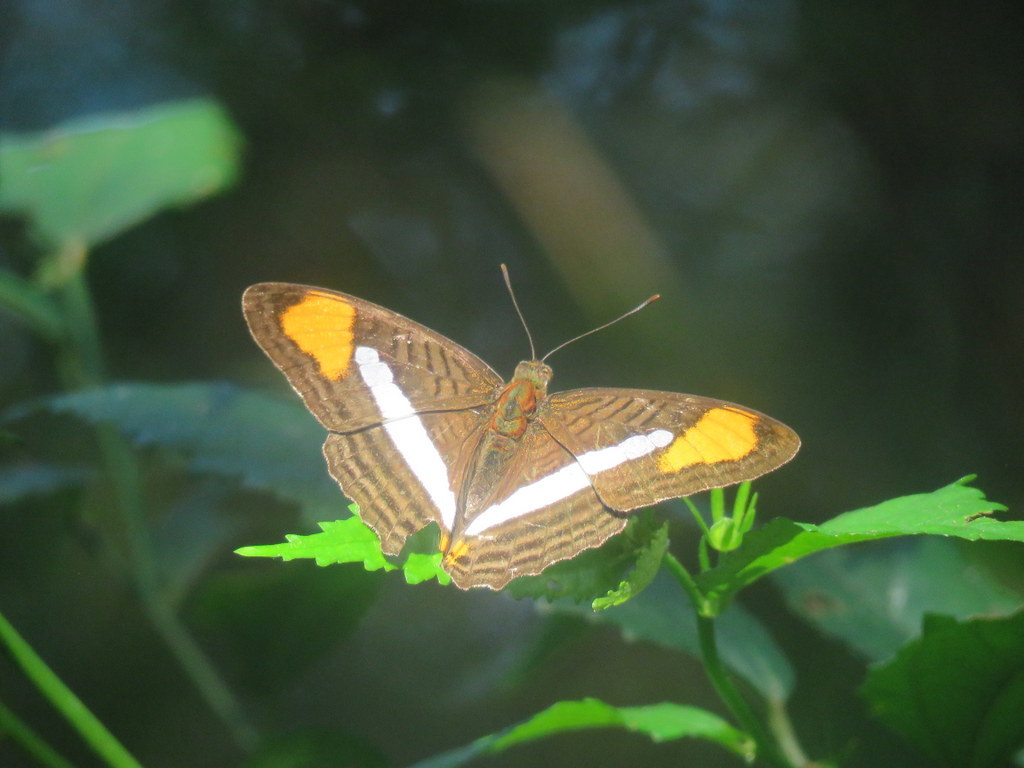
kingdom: Animalia
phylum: Arthropoda
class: Insecta
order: Lepidoptera
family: Nymphalidae
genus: Limenitis
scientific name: Limenitis thessalia
